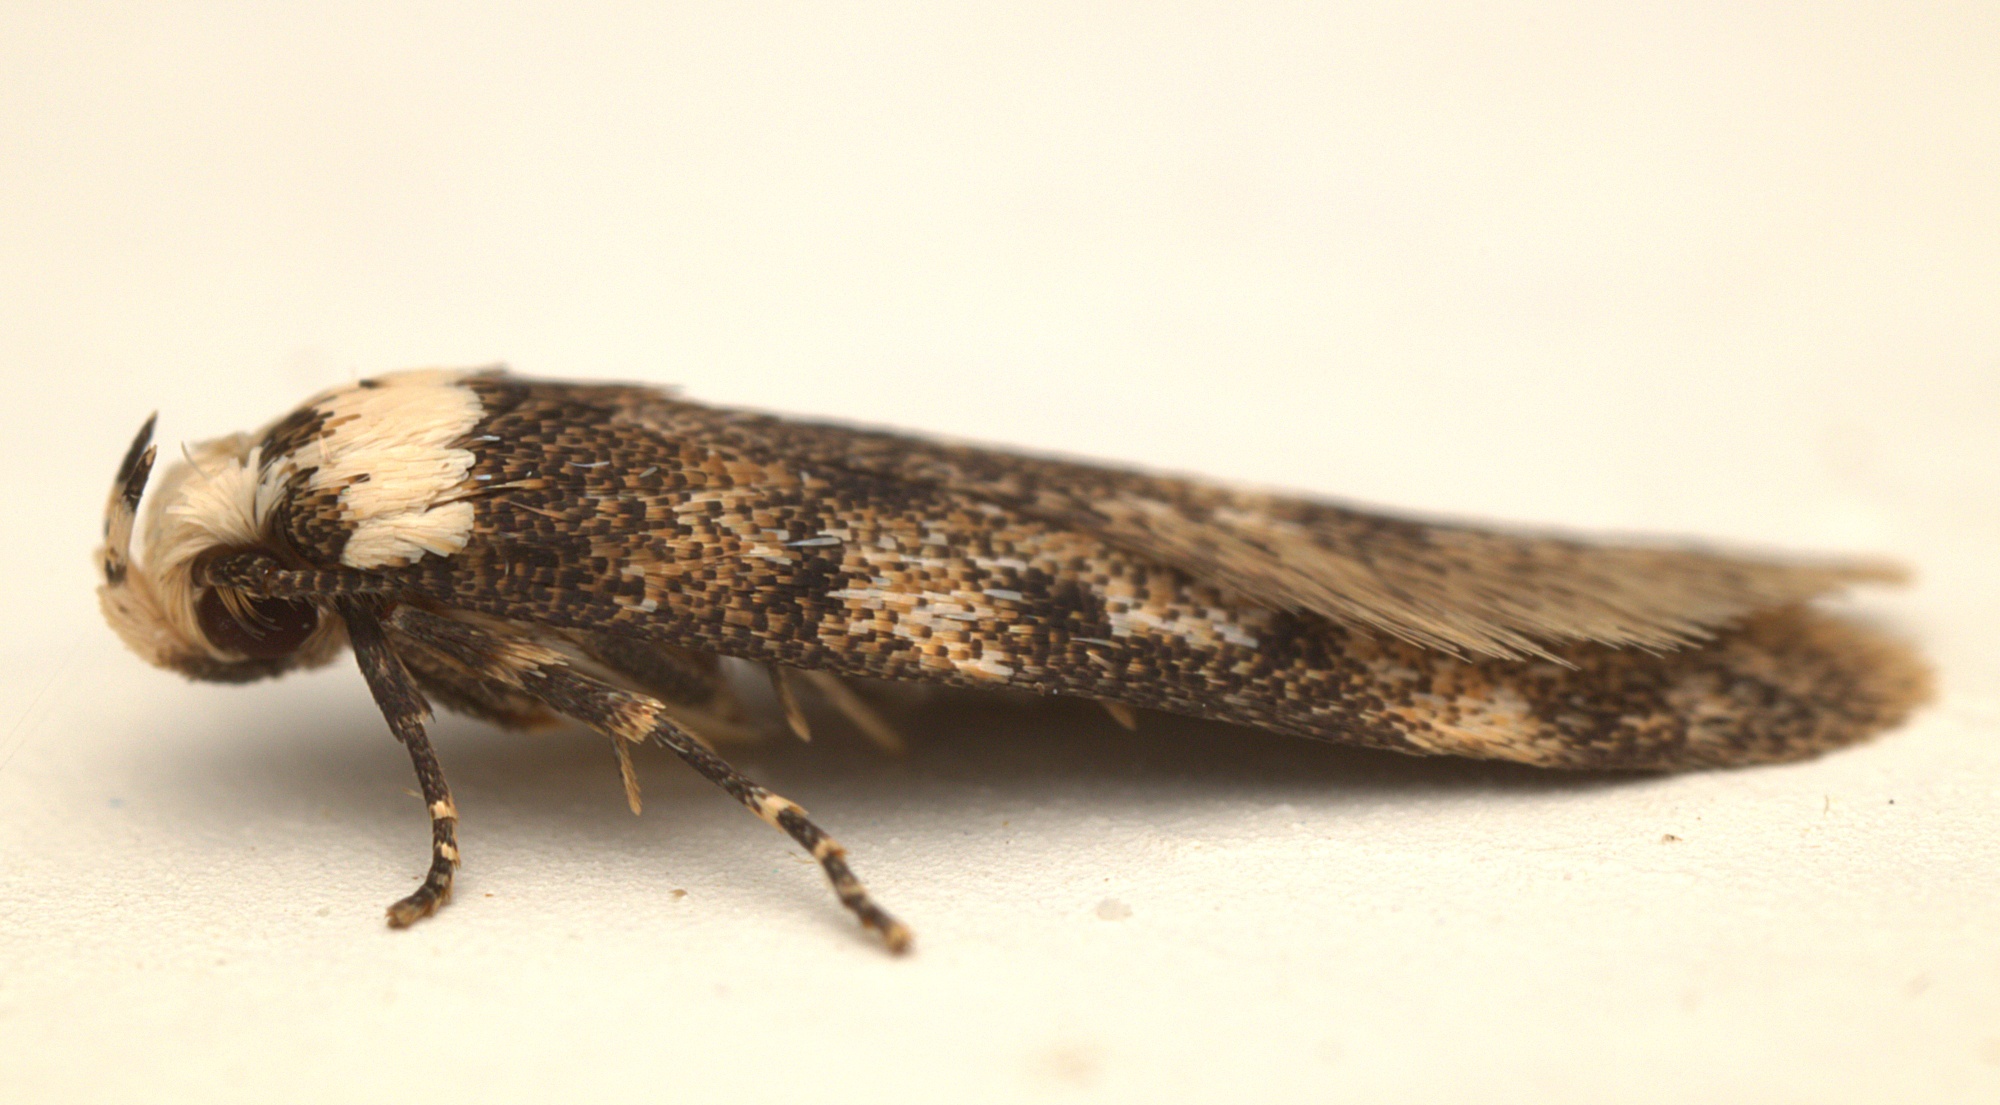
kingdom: Animalia
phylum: Arthropoda
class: Insecta
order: Lepidoptera
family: Oecophoridae
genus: Endrosis
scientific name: Endrosis sarcitrella
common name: White-shouldered house moth
